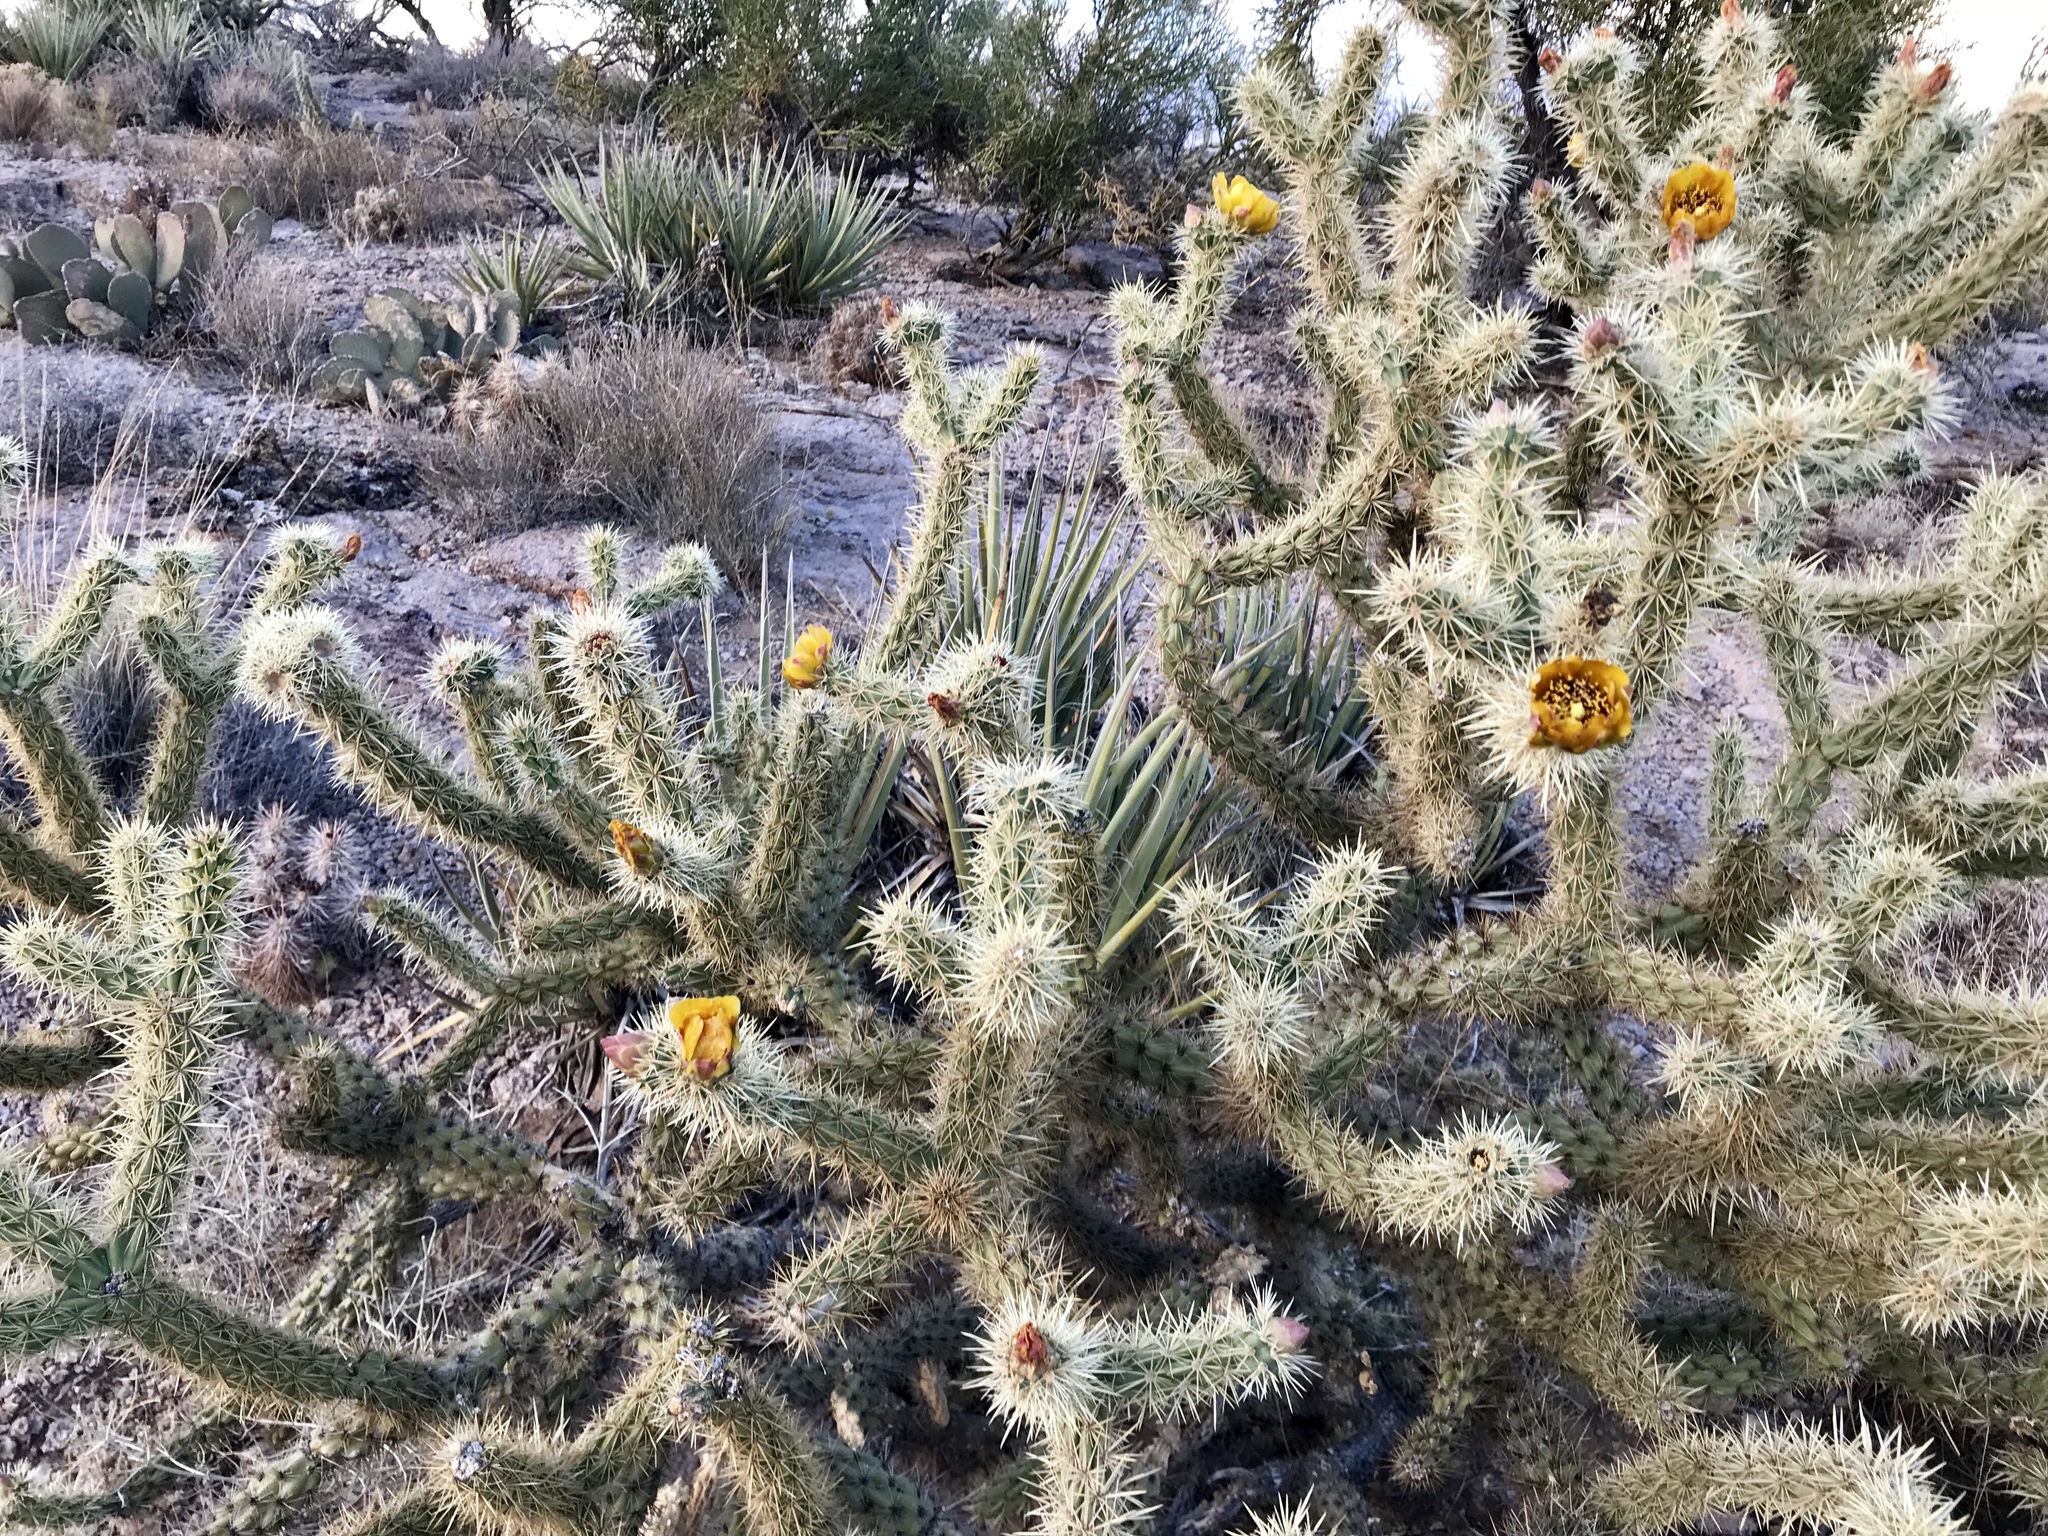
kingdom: Plantae
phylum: Tracheophyta
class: Magnoliopsida
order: Caryophyllales
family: Cactaceae
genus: Cylindropuntia
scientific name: Cylindropuntia acanthocarpa
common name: Buckhorn cholla
